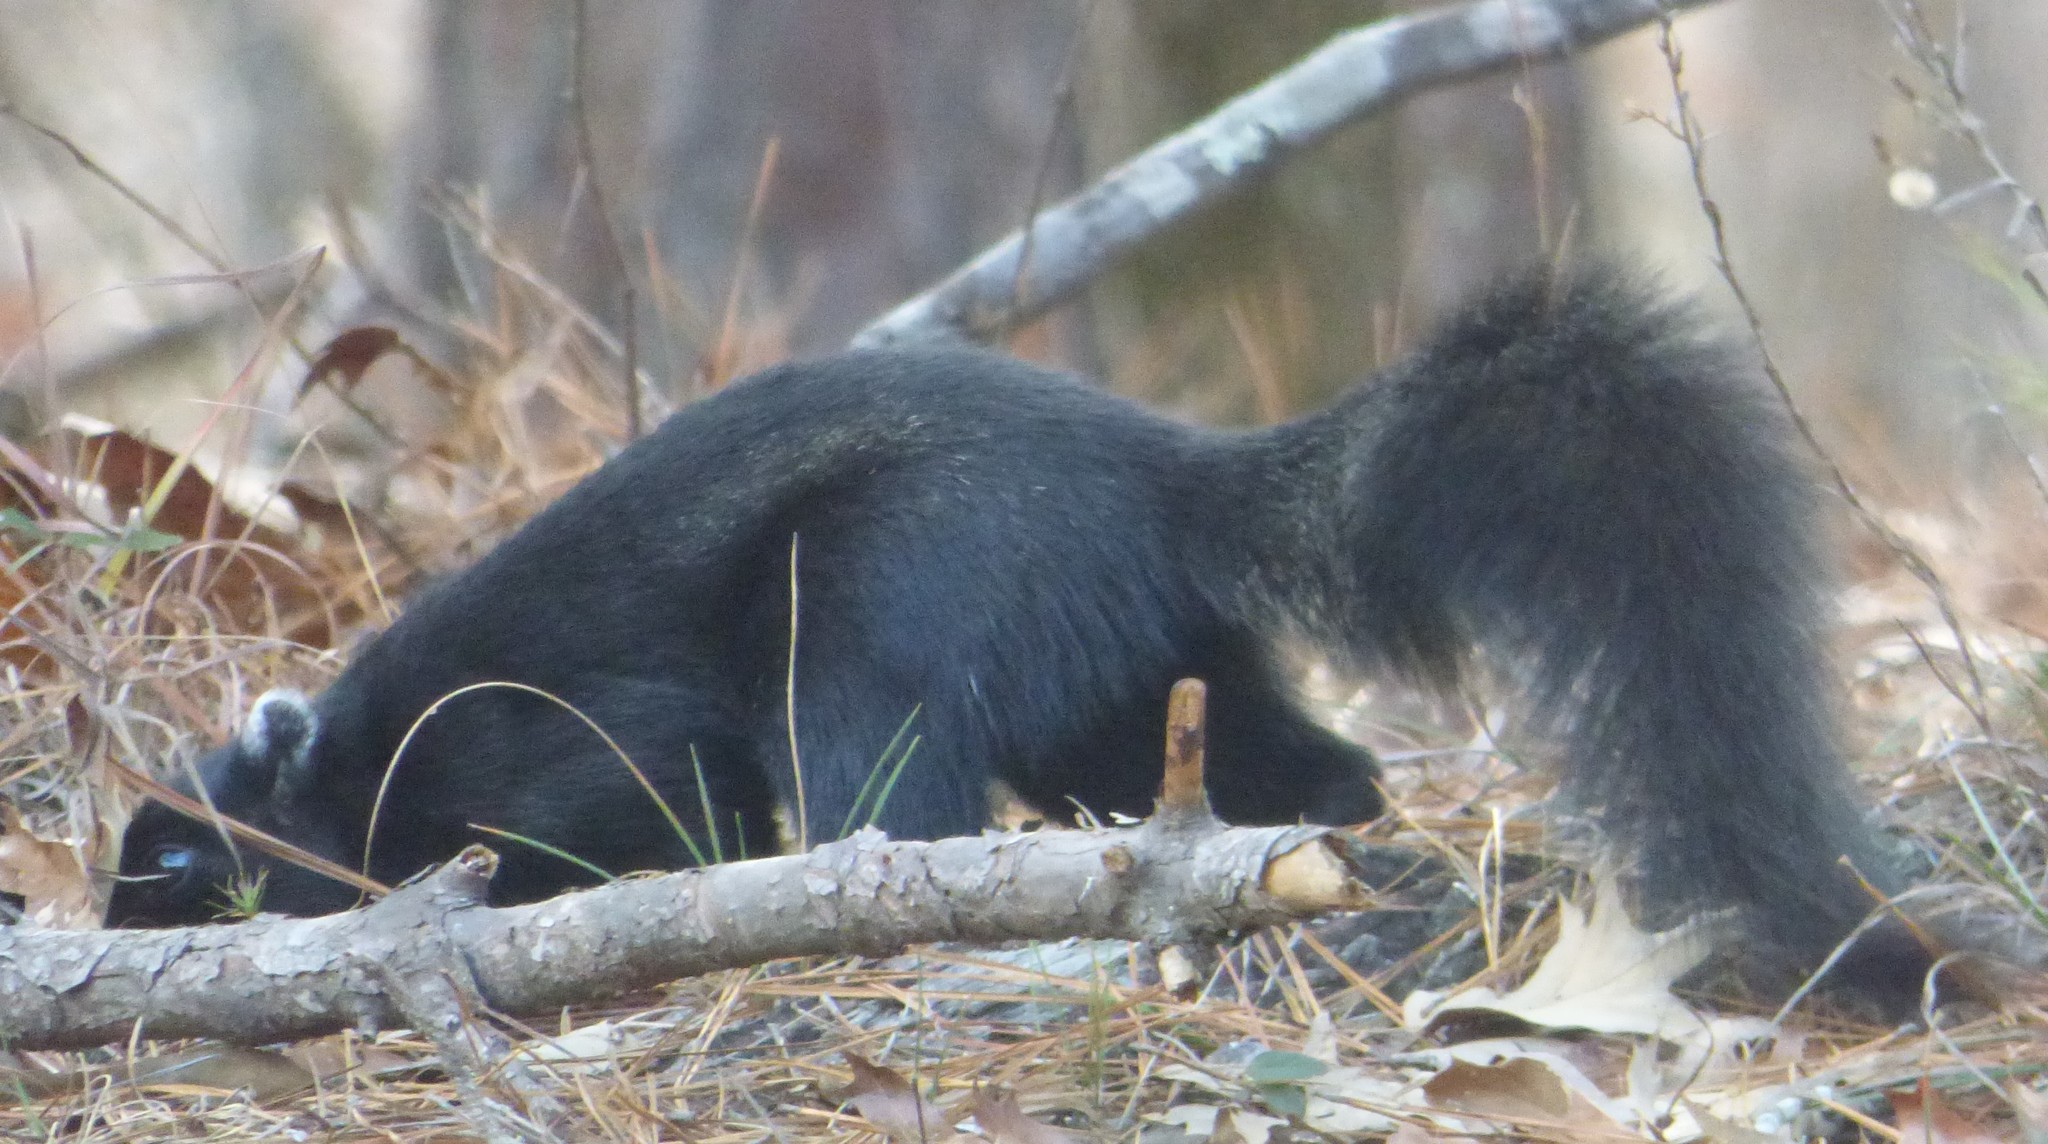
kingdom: Animalia
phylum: Chordata
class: Mammalia
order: Rodentia
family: Sciuridae
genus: Sciurus
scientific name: Sciurus niger
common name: Fox squirrel
